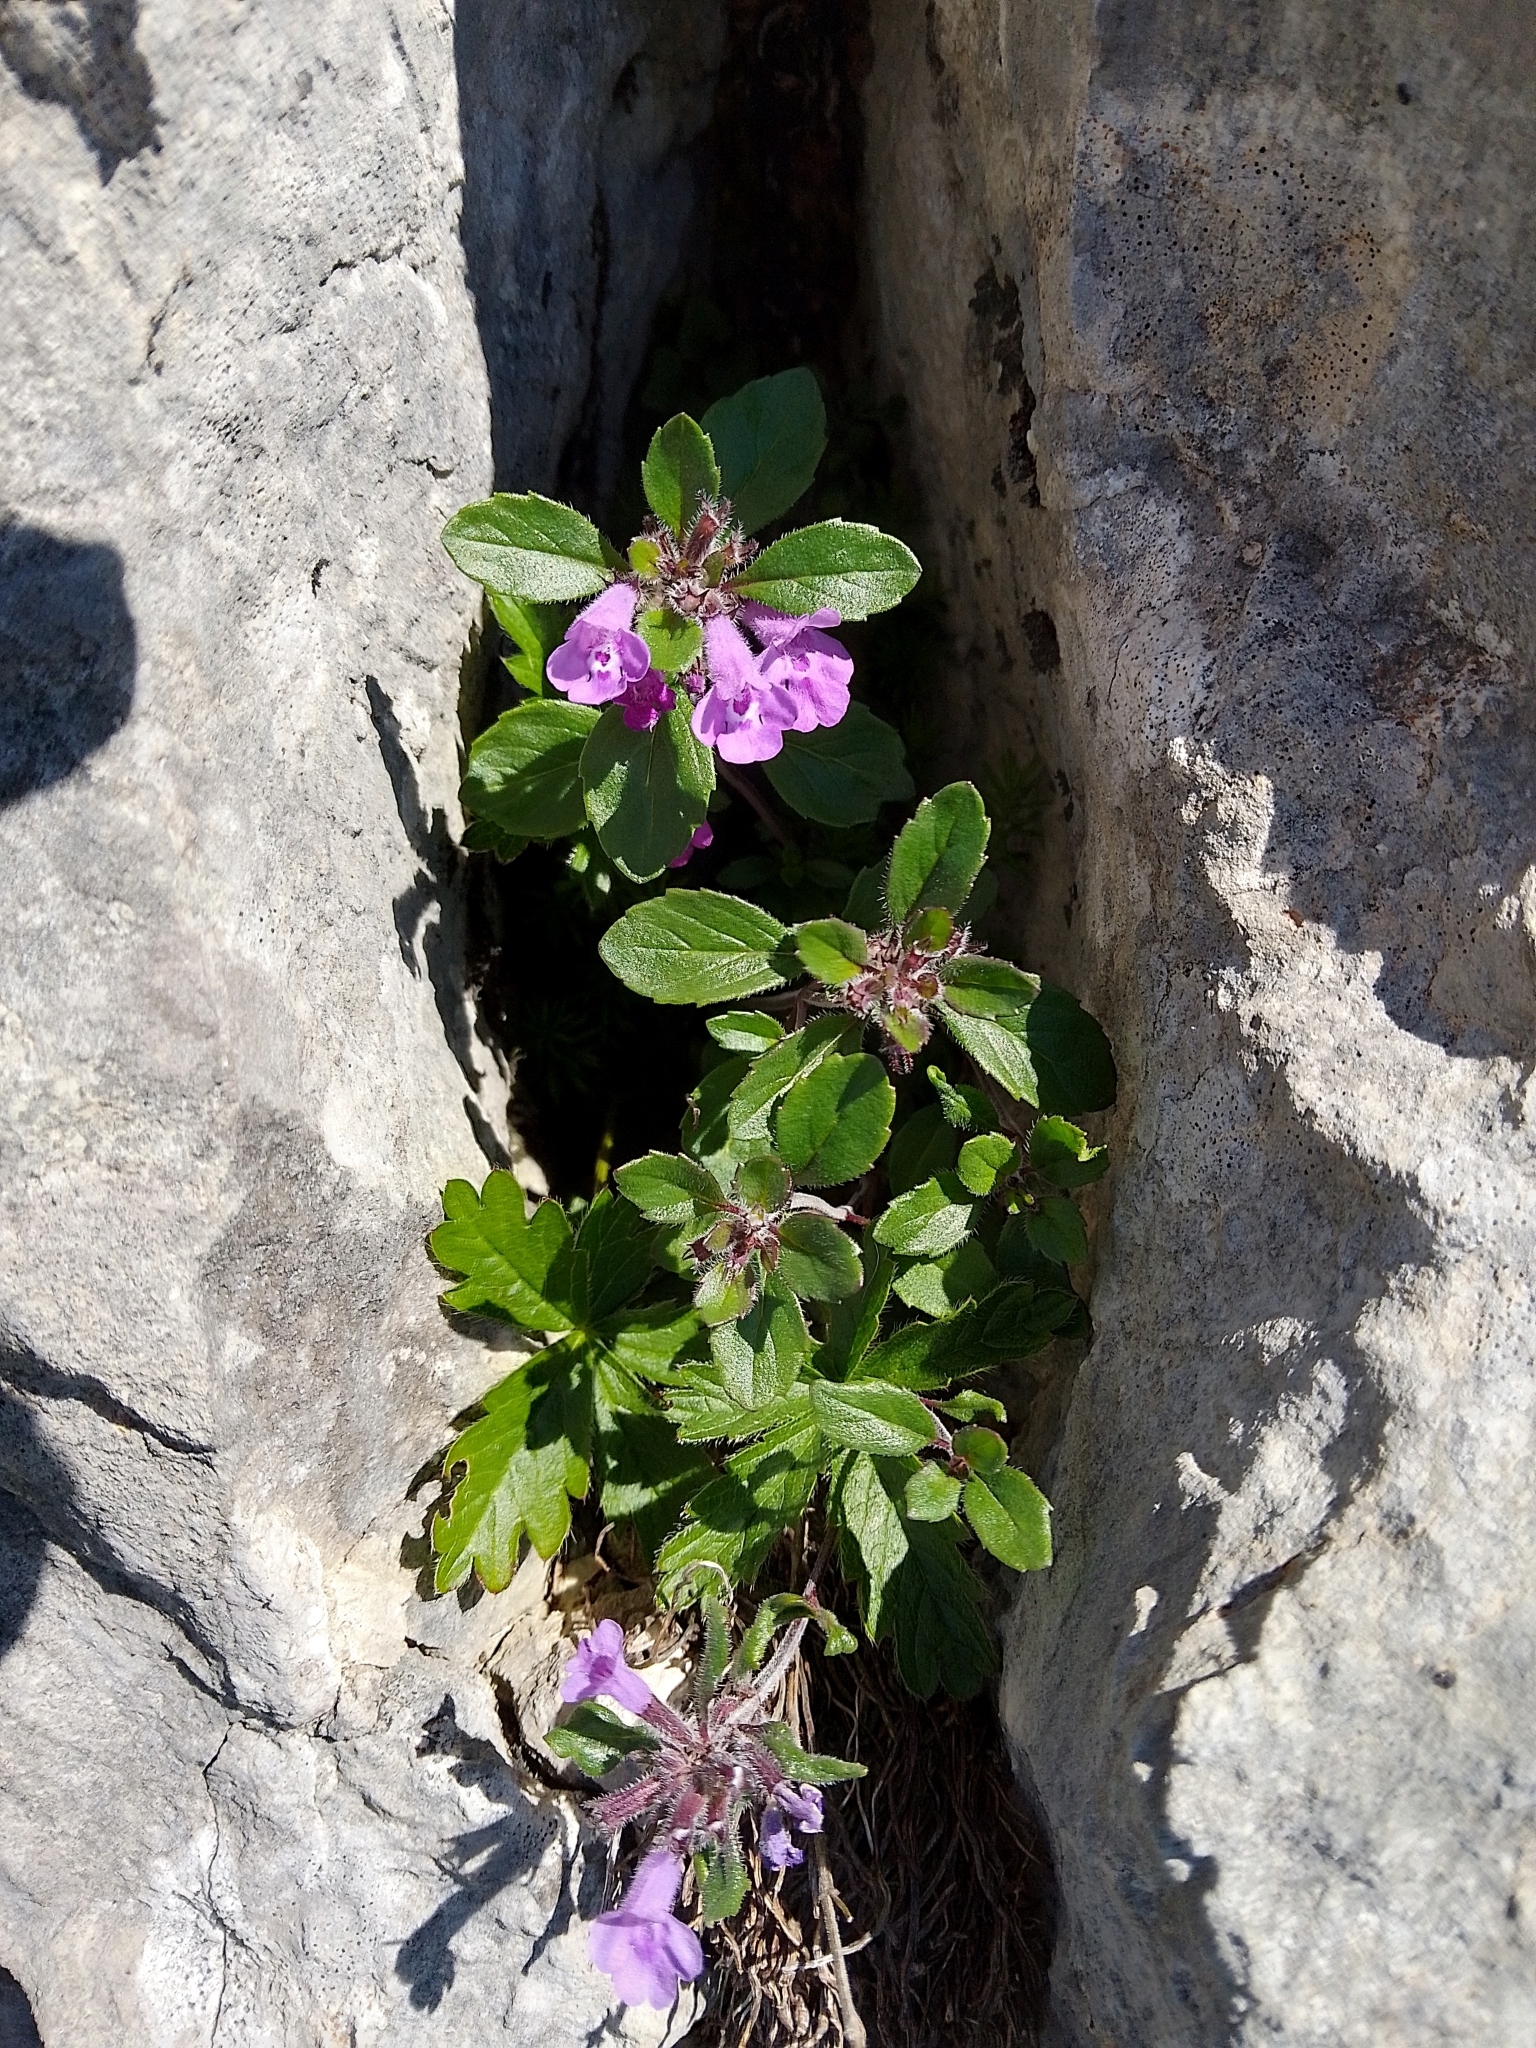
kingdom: Plantae
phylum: Tracheophyta
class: Magnoliopsida
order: Lamiales
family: Lamiaceae
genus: Clinopodium
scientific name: Clinopodium alpinum
